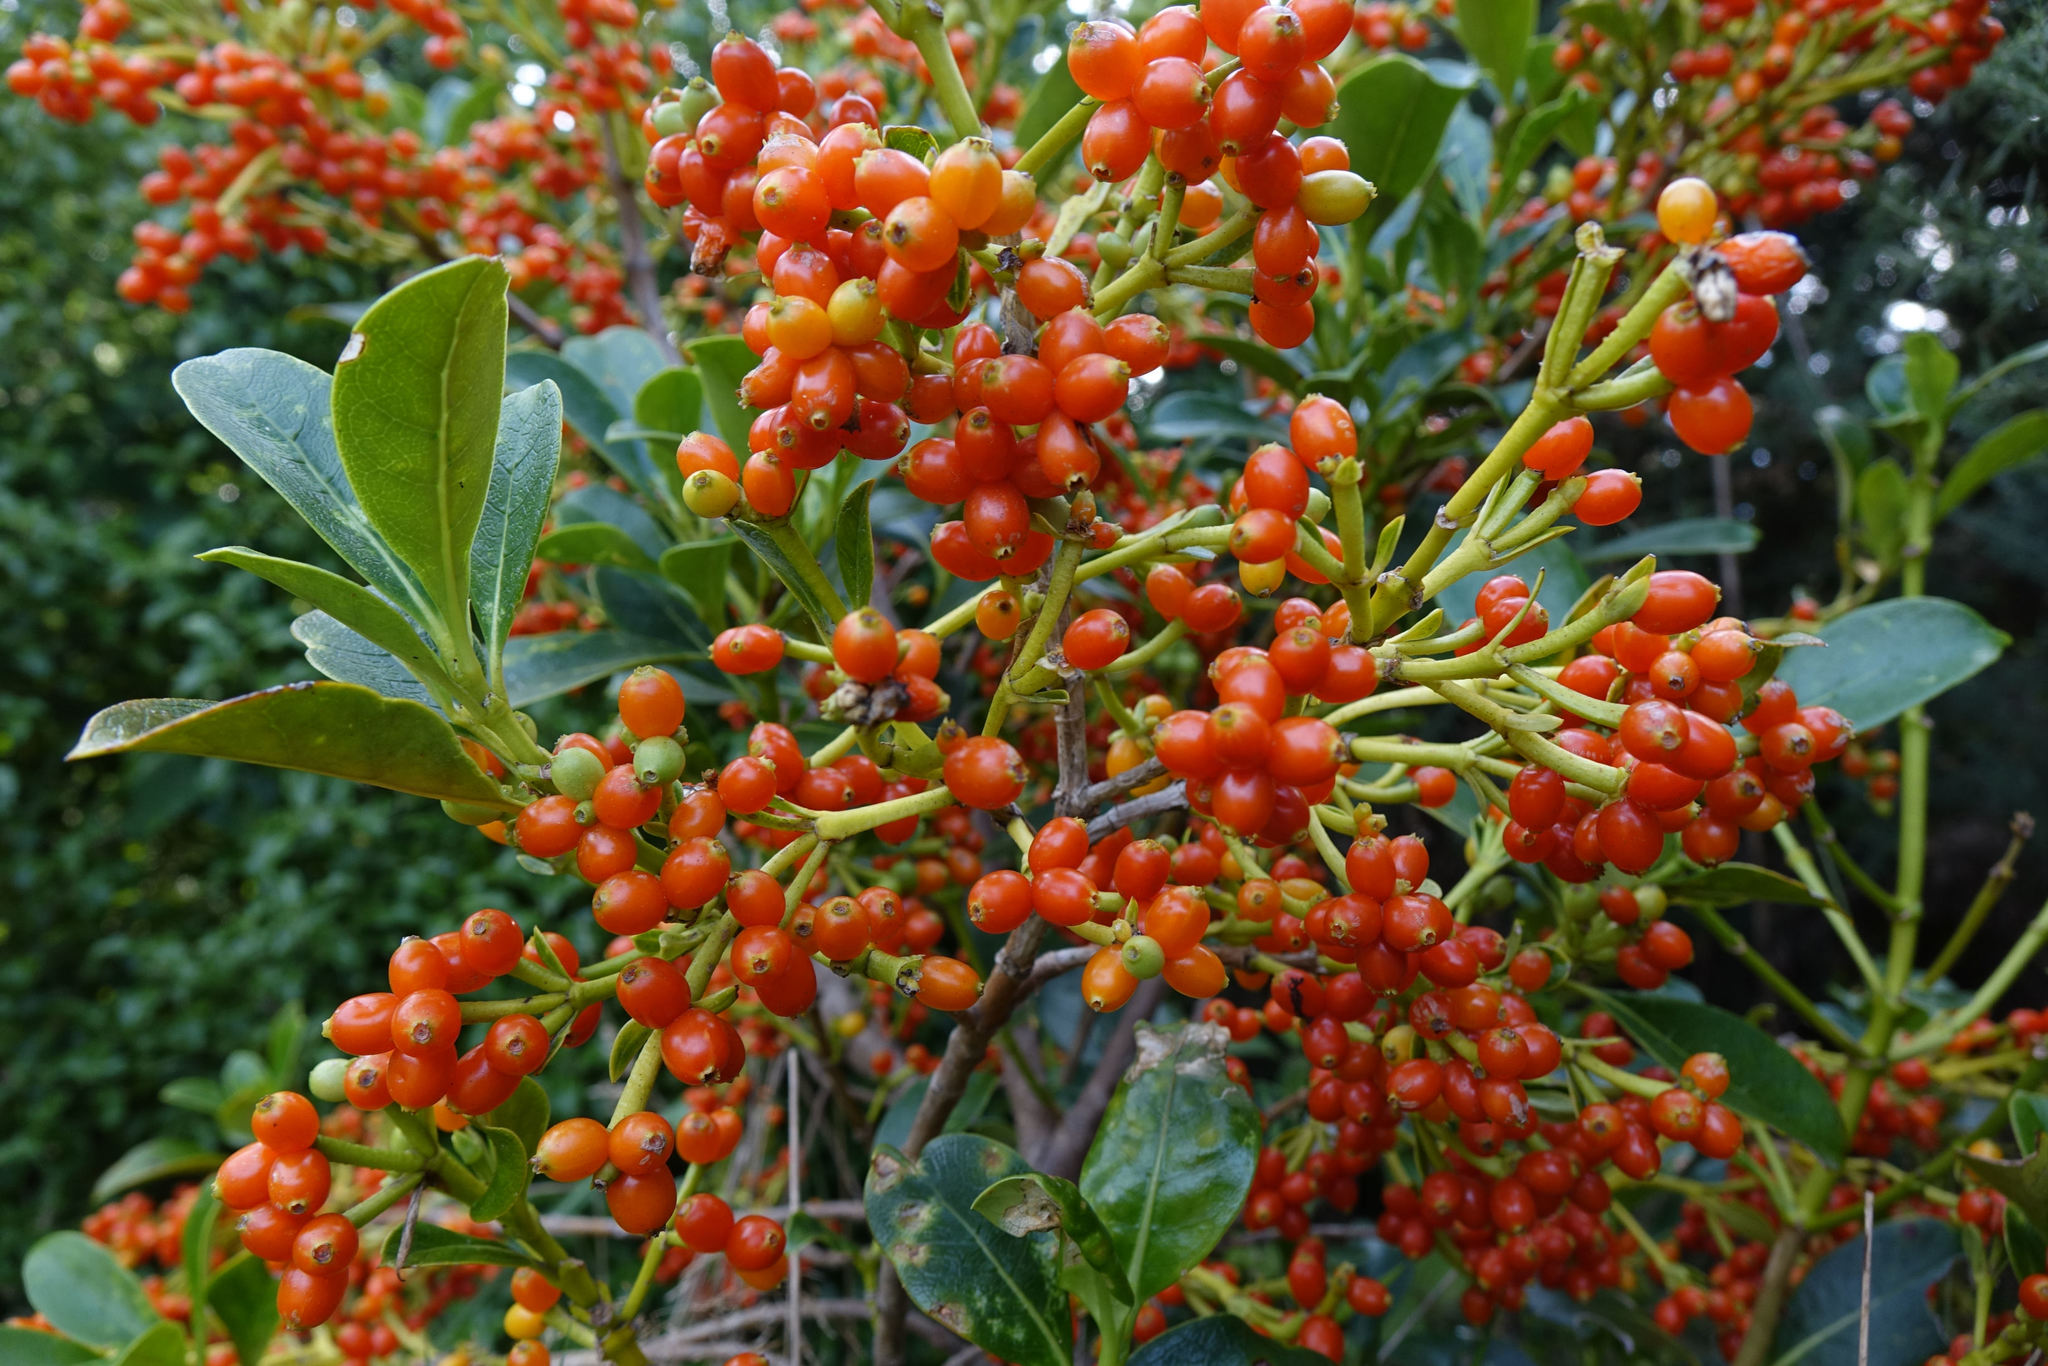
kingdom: Plantae
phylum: Tracheophyta
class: Magnoliopsida
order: Gentianales
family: Rubiaceae
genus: Coprosma
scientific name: Coprosma lucida
